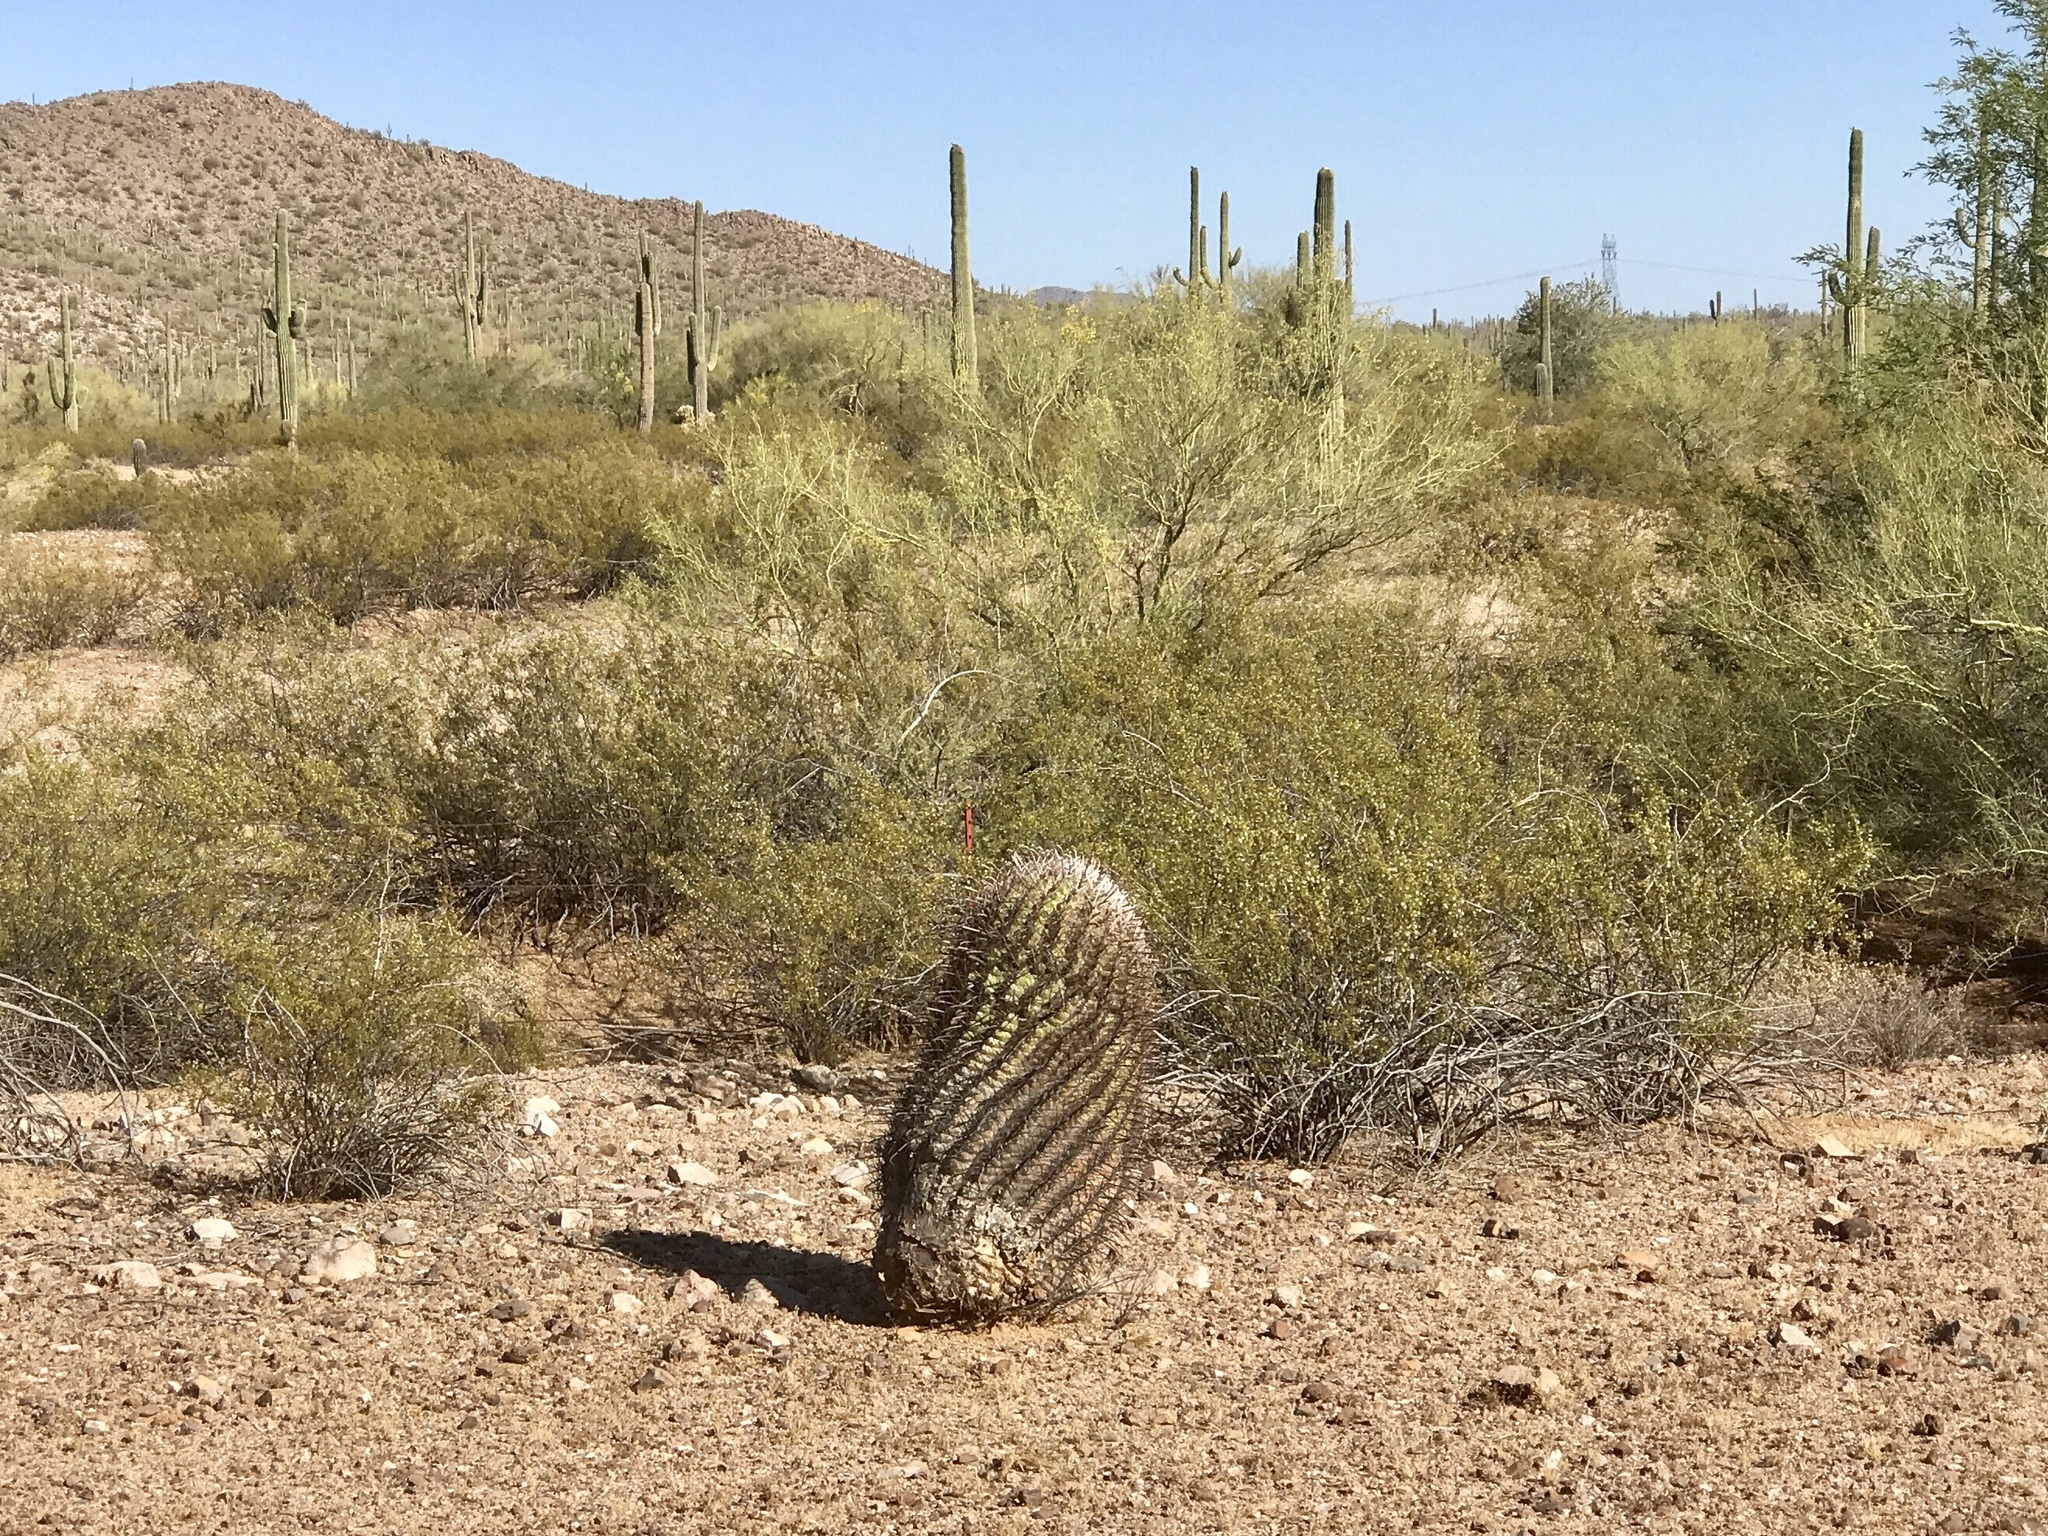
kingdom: Plantae
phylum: Tracheophyta
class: Magnoliopsida
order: Caryophyllales
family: Cactaceae
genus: Ferocactus
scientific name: Ferocactus wislizeni
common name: Candy barrel cactus
